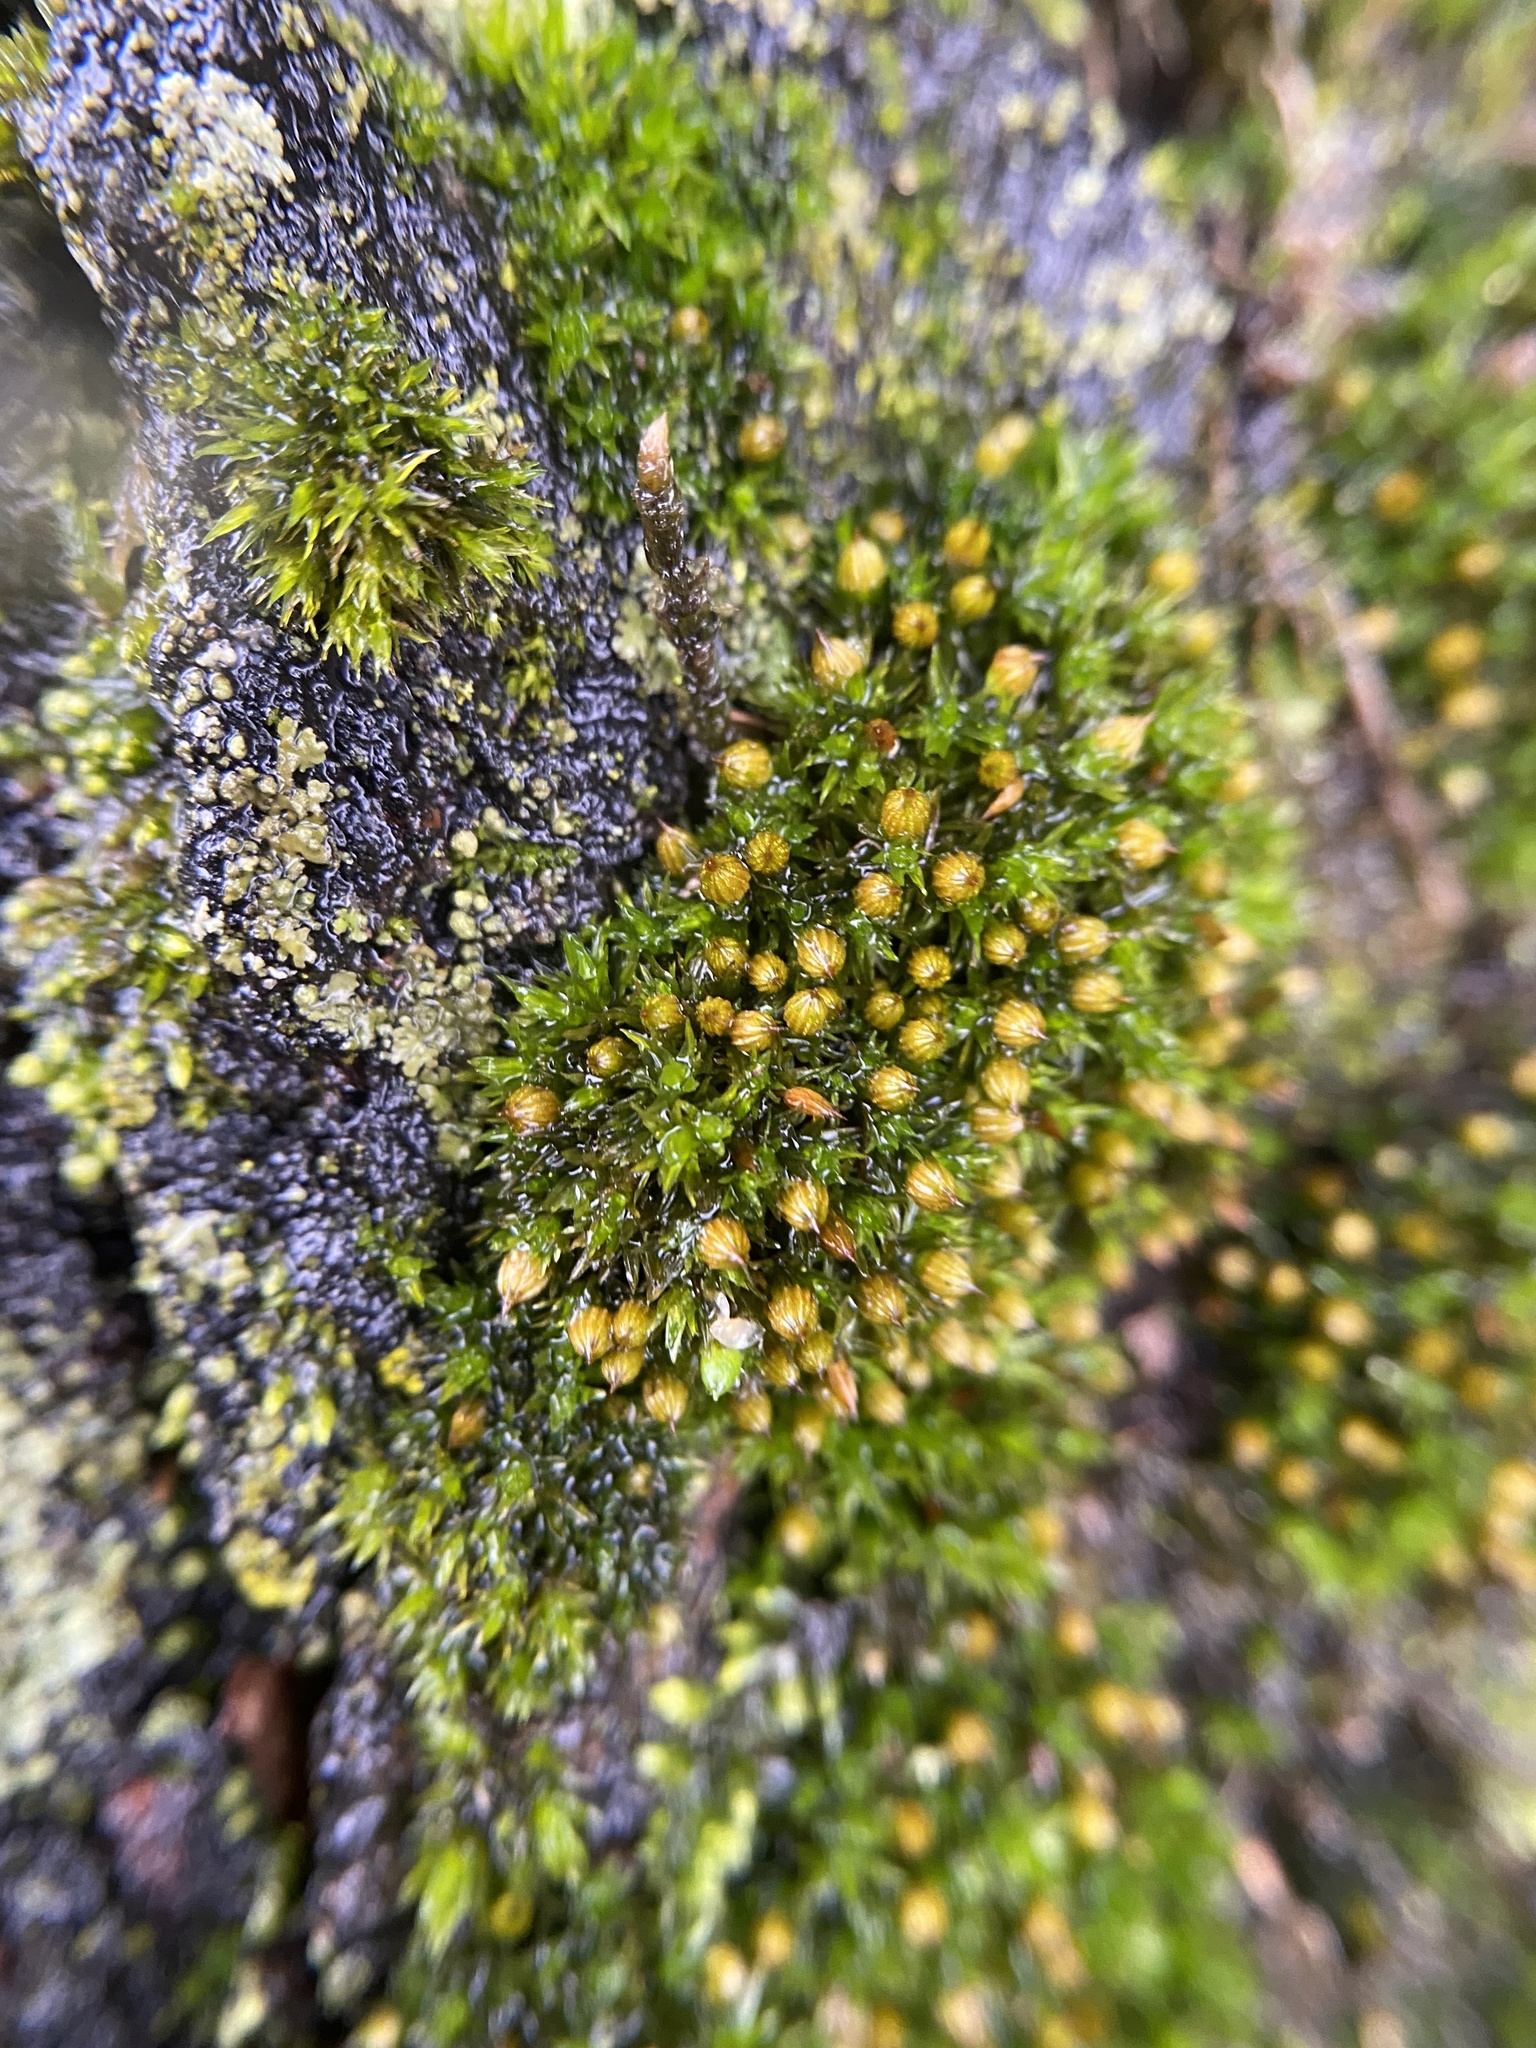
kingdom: Plantae
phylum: Bryophyta
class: Bryopsida
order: Orthotrichales
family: Orthotrichaceae
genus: Orthotrichum
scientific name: Orthotrichum pumilum
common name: Dwarf bristle moss
